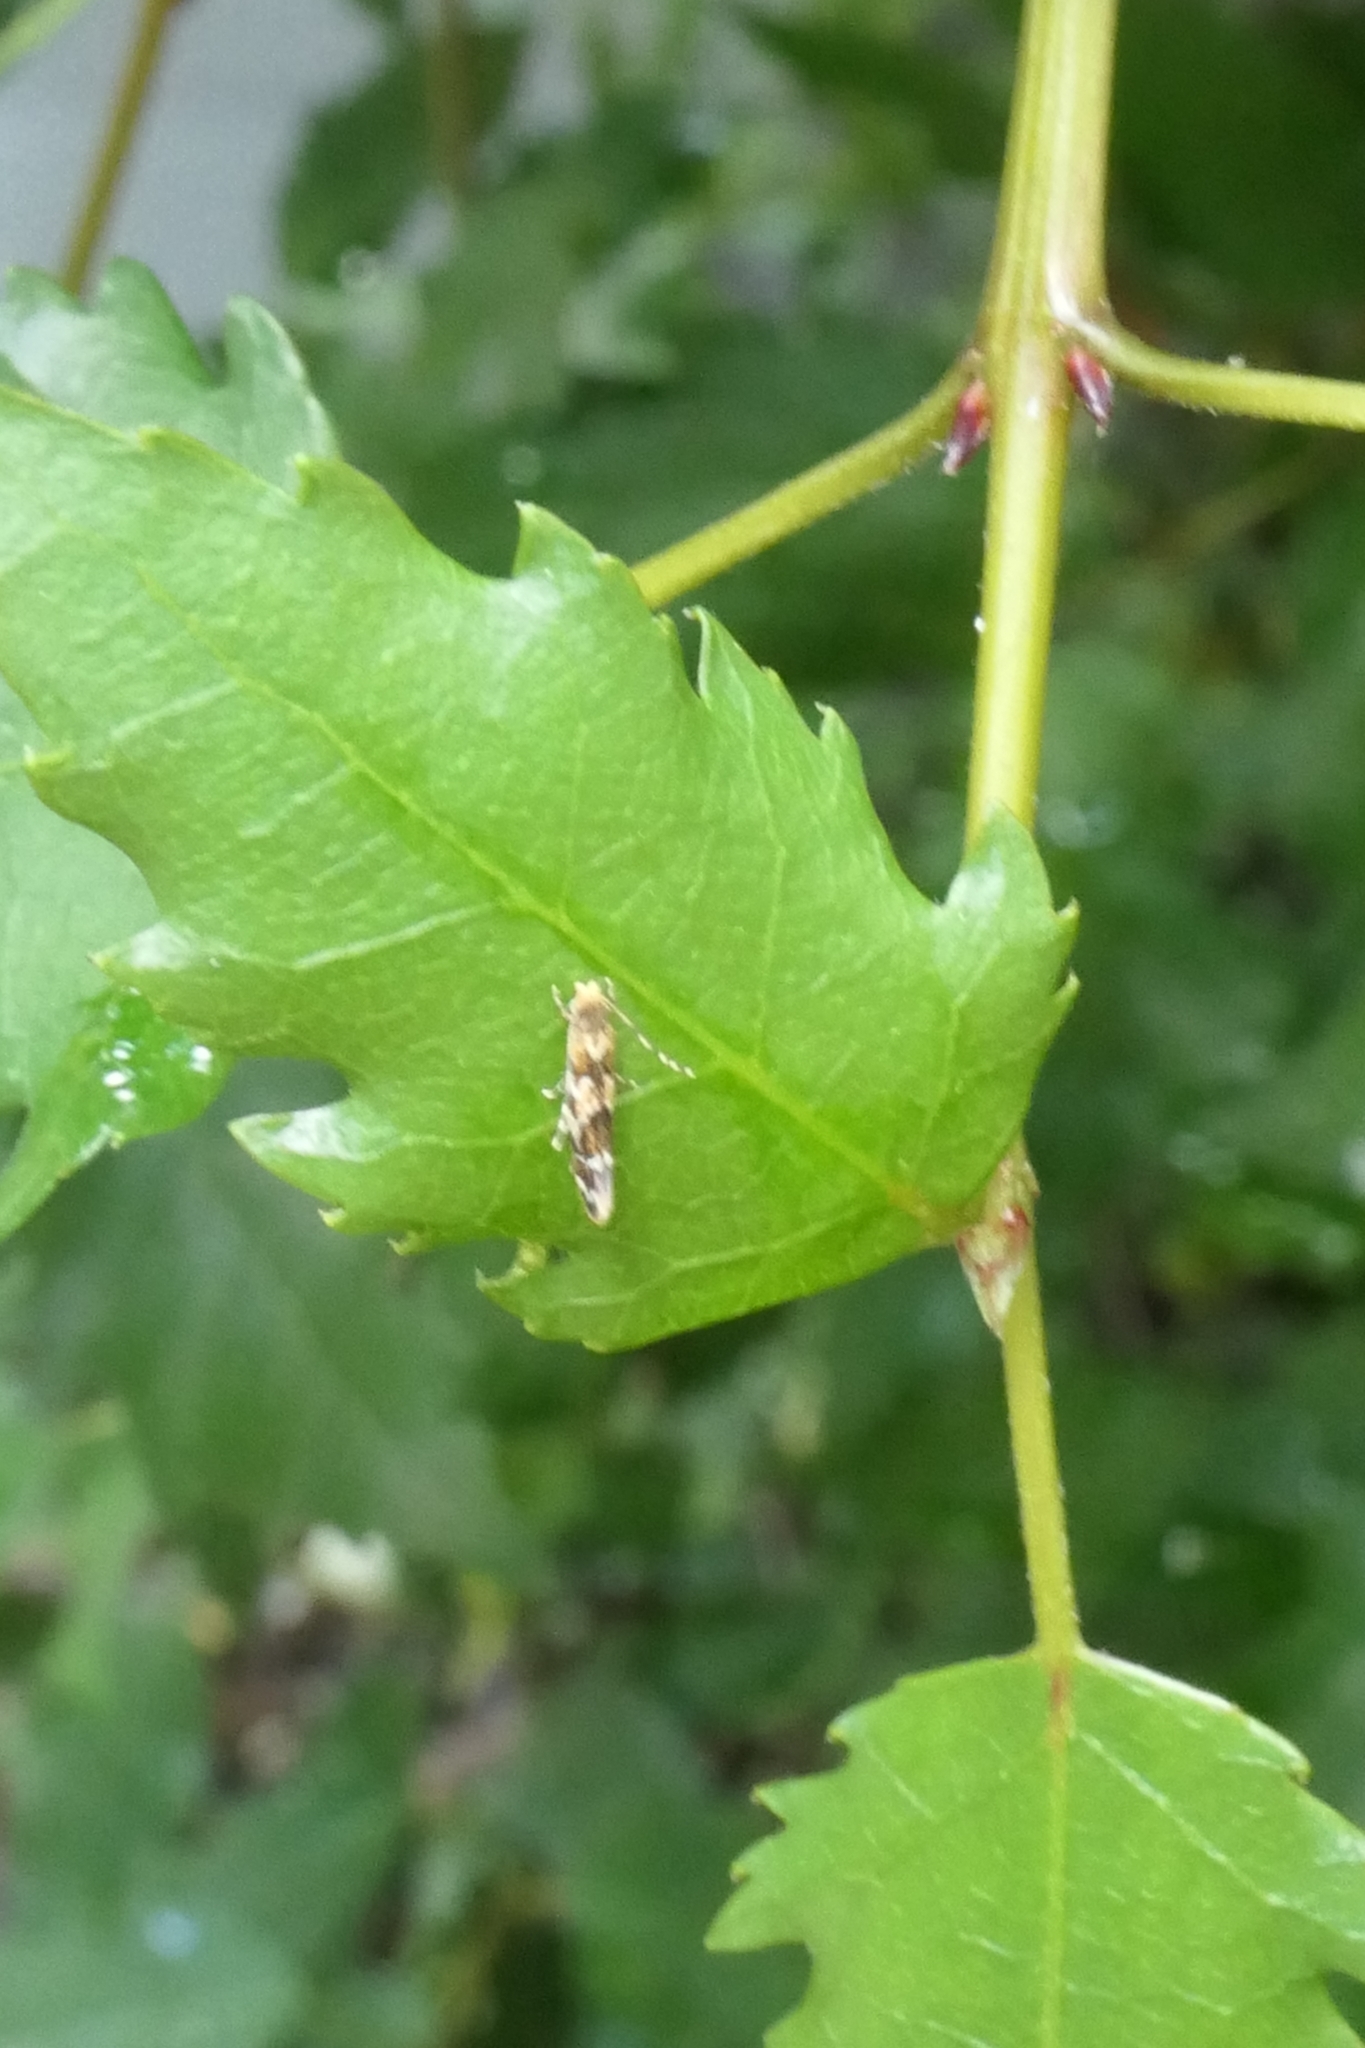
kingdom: Animalia
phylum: Arthropoda
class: Insecta
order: Lepidoptera
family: Dryadaulidae
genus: Dryadaula
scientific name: Dryadaula pactolia
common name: Cellar clothes
